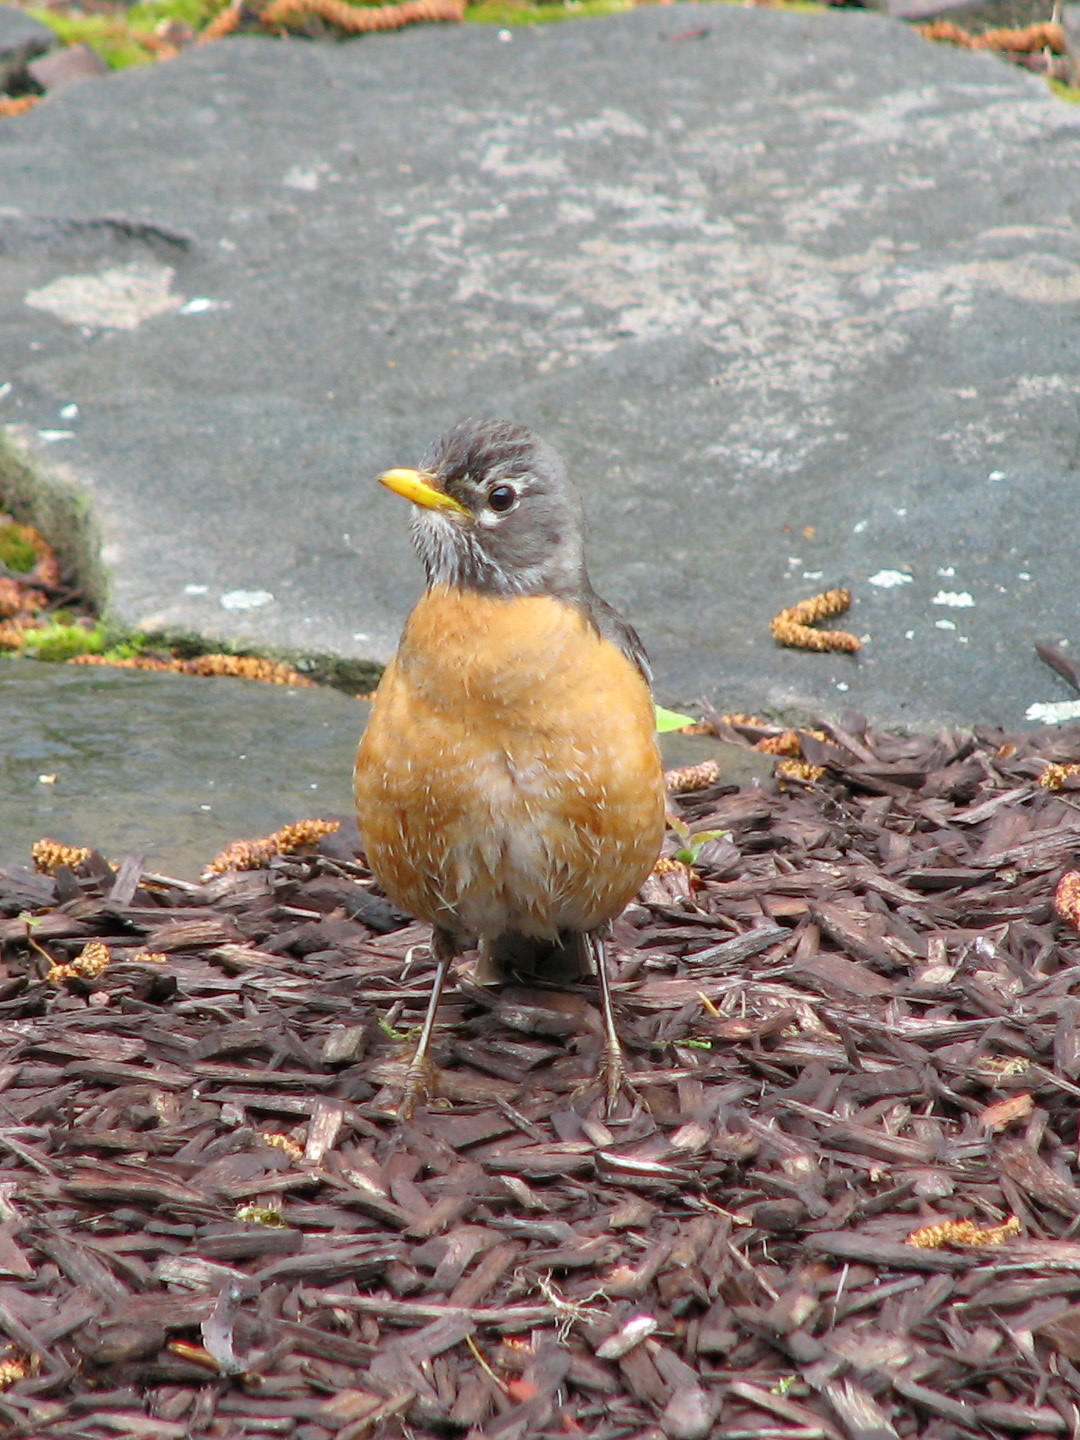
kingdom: Animalia
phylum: Chordata
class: Aves
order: Passeriformes
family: Turdidae
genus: Turdus
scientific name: Turdus migratorius
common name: American robin
